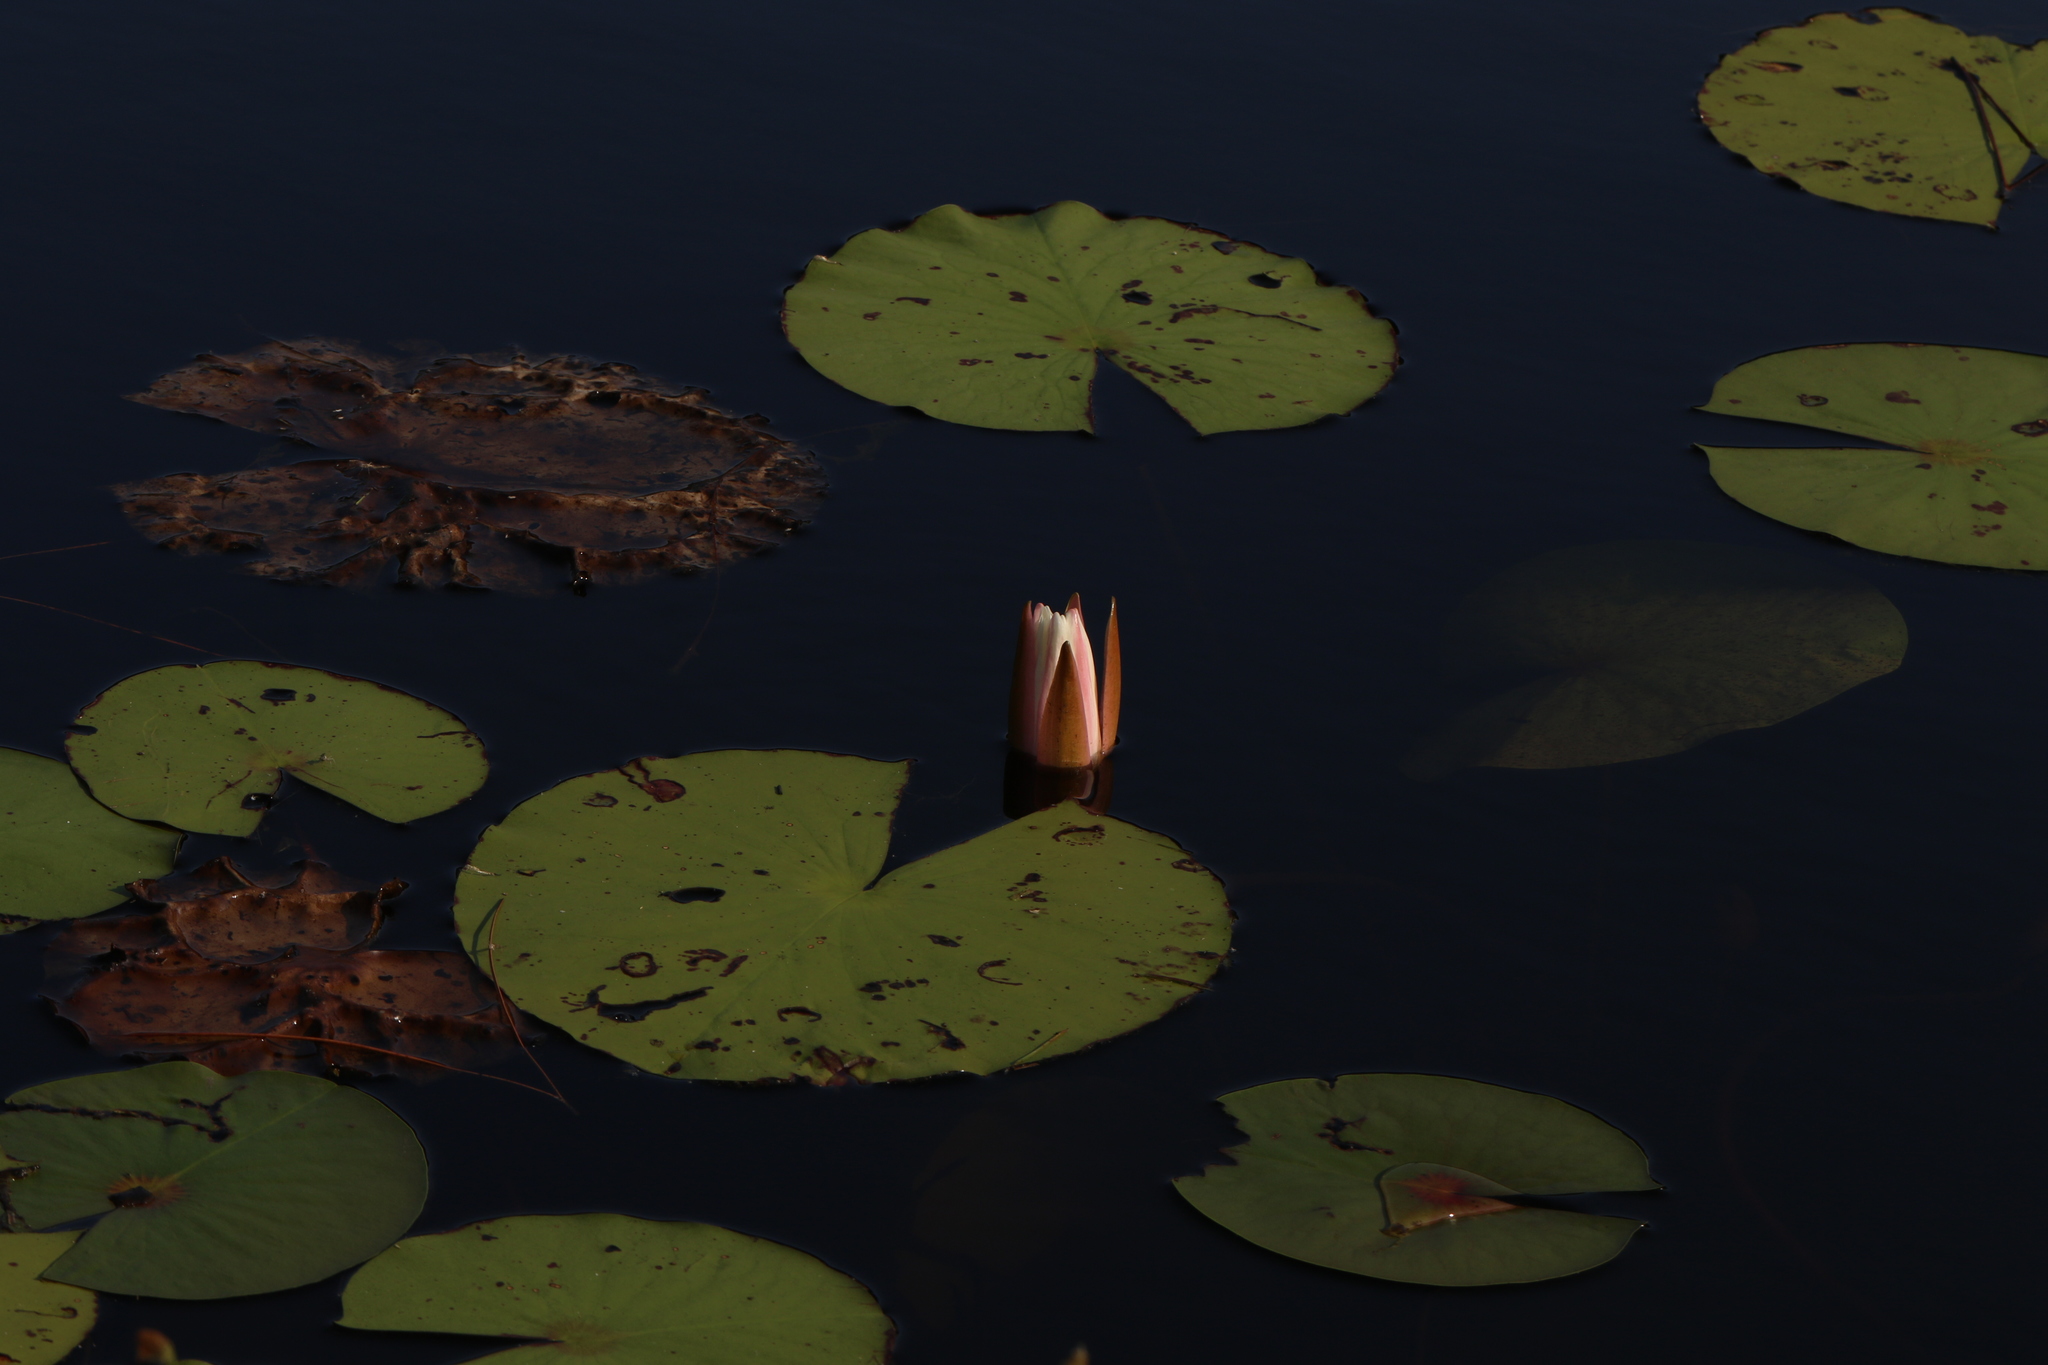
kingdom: Plantae
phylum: Tracheophyta
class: Magnoliopsida
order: Nymphaeales
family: Nymphaeaceae
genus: Nymphaea
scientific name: Nymphaea odorata
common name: Fragrant water-lily
